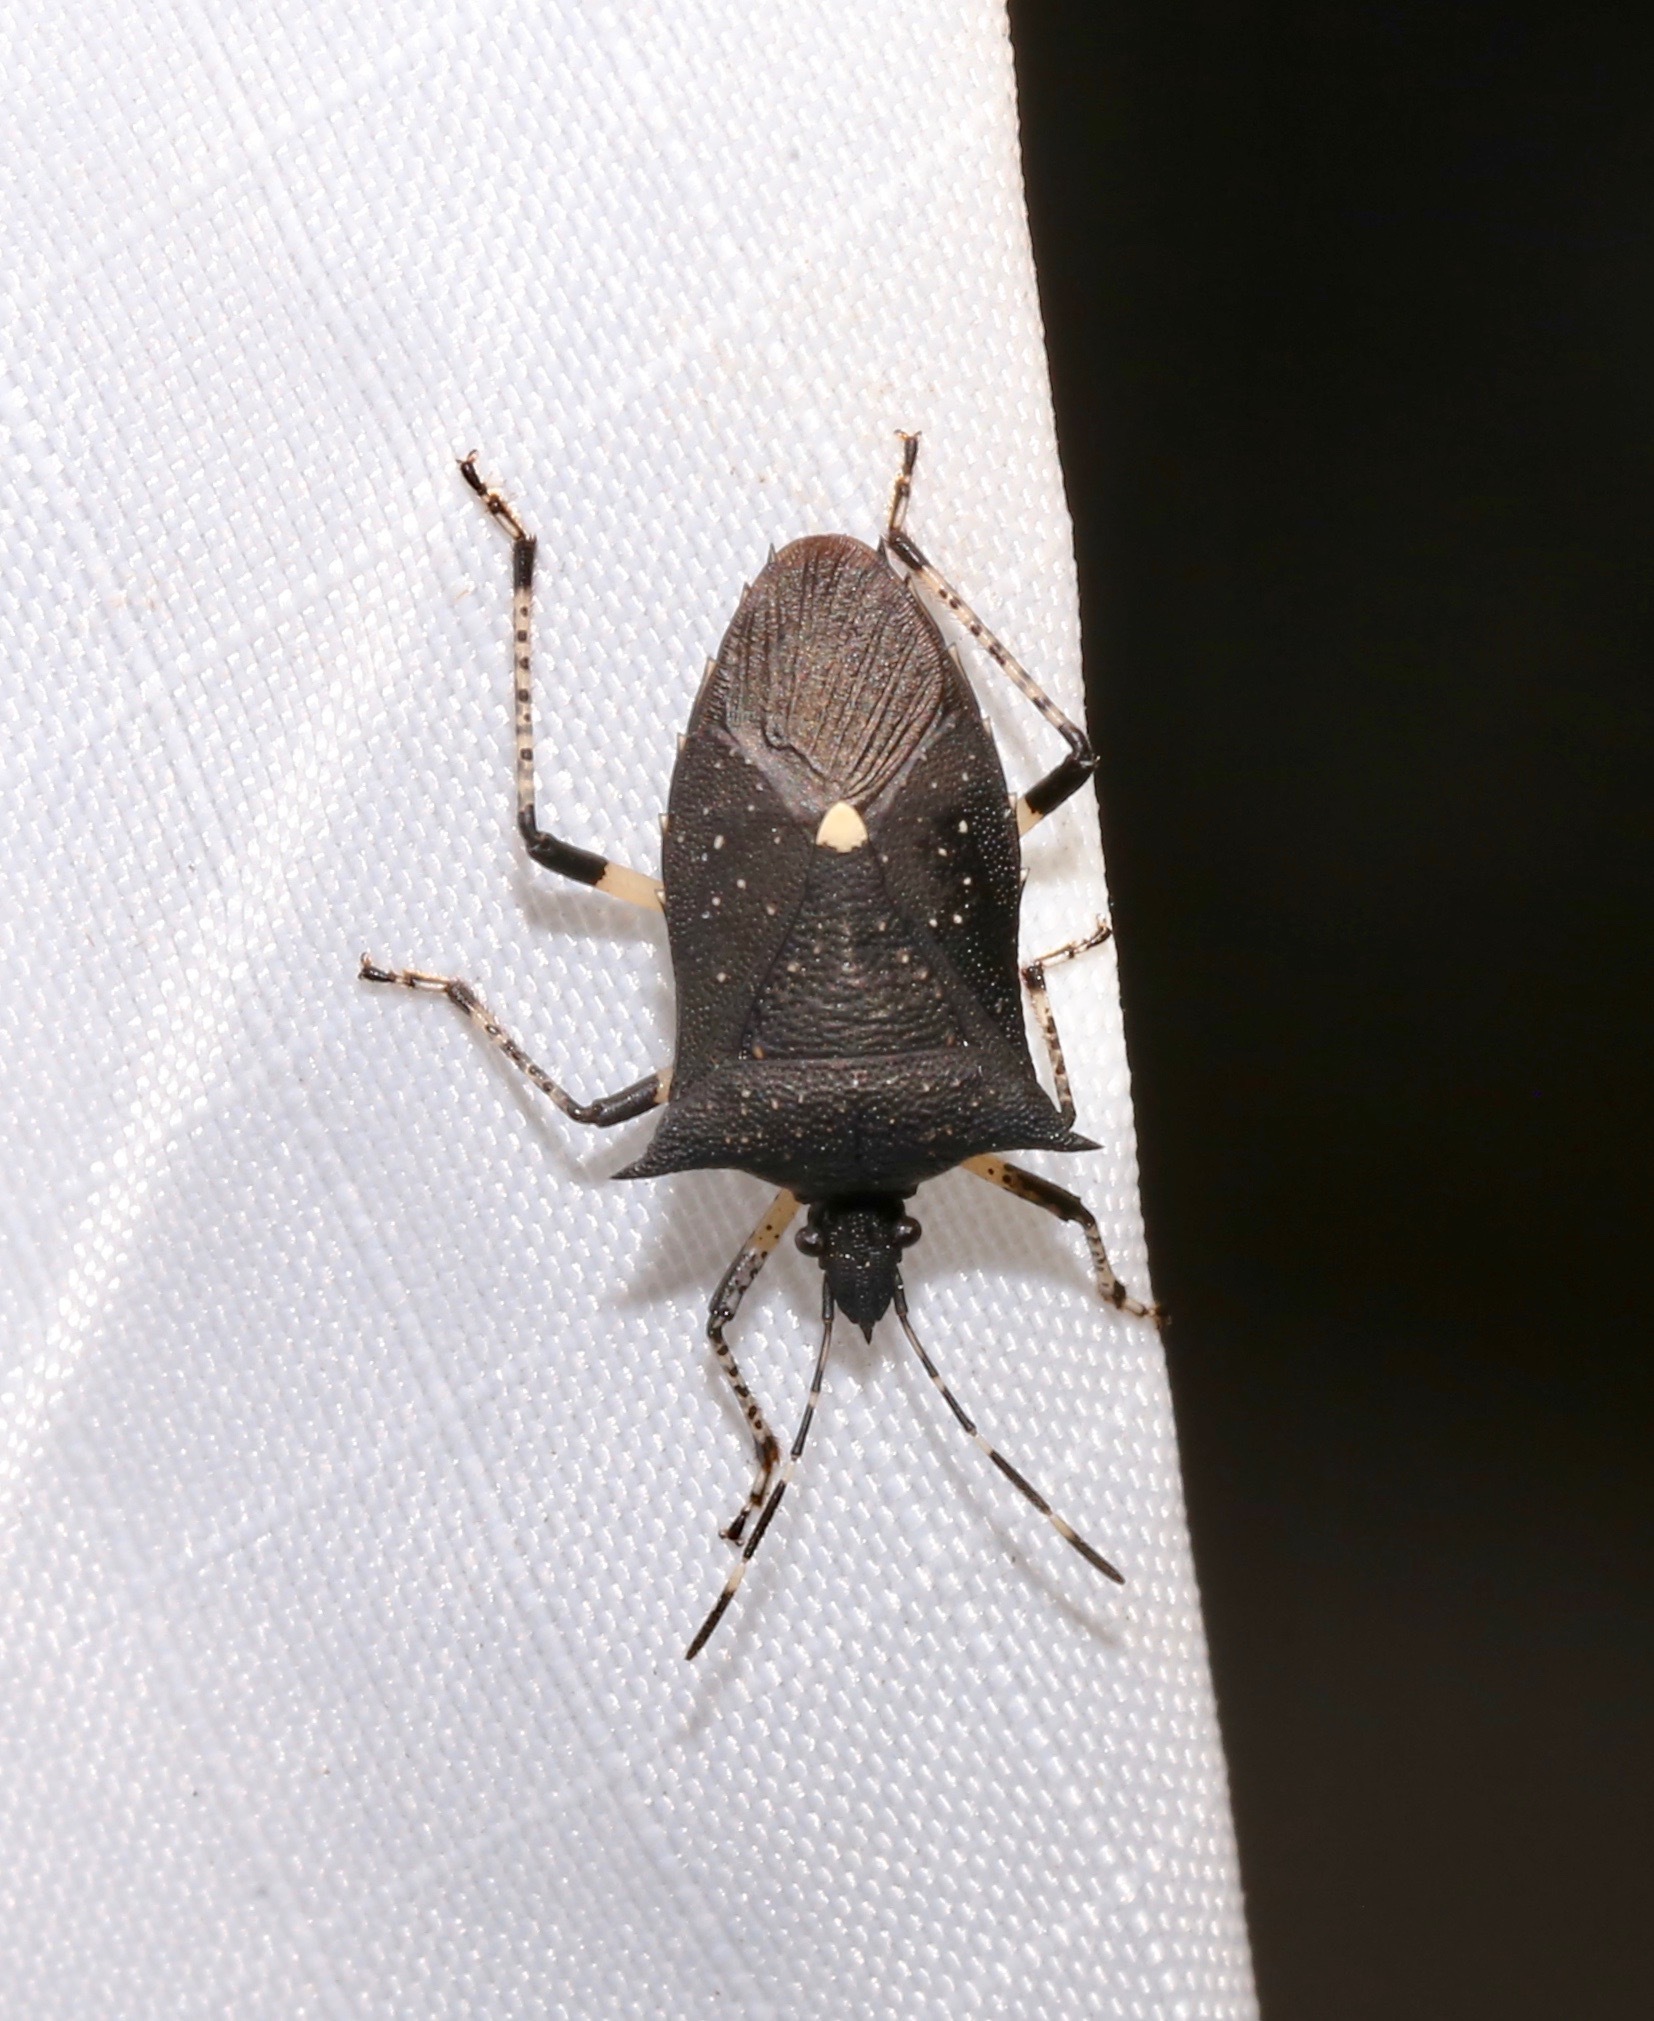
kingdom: Animalia
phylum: Arthropoda
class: Insecta
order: Hemiptera
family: Pentatomidae
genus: Proxys
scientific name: Proxys punctulatus
